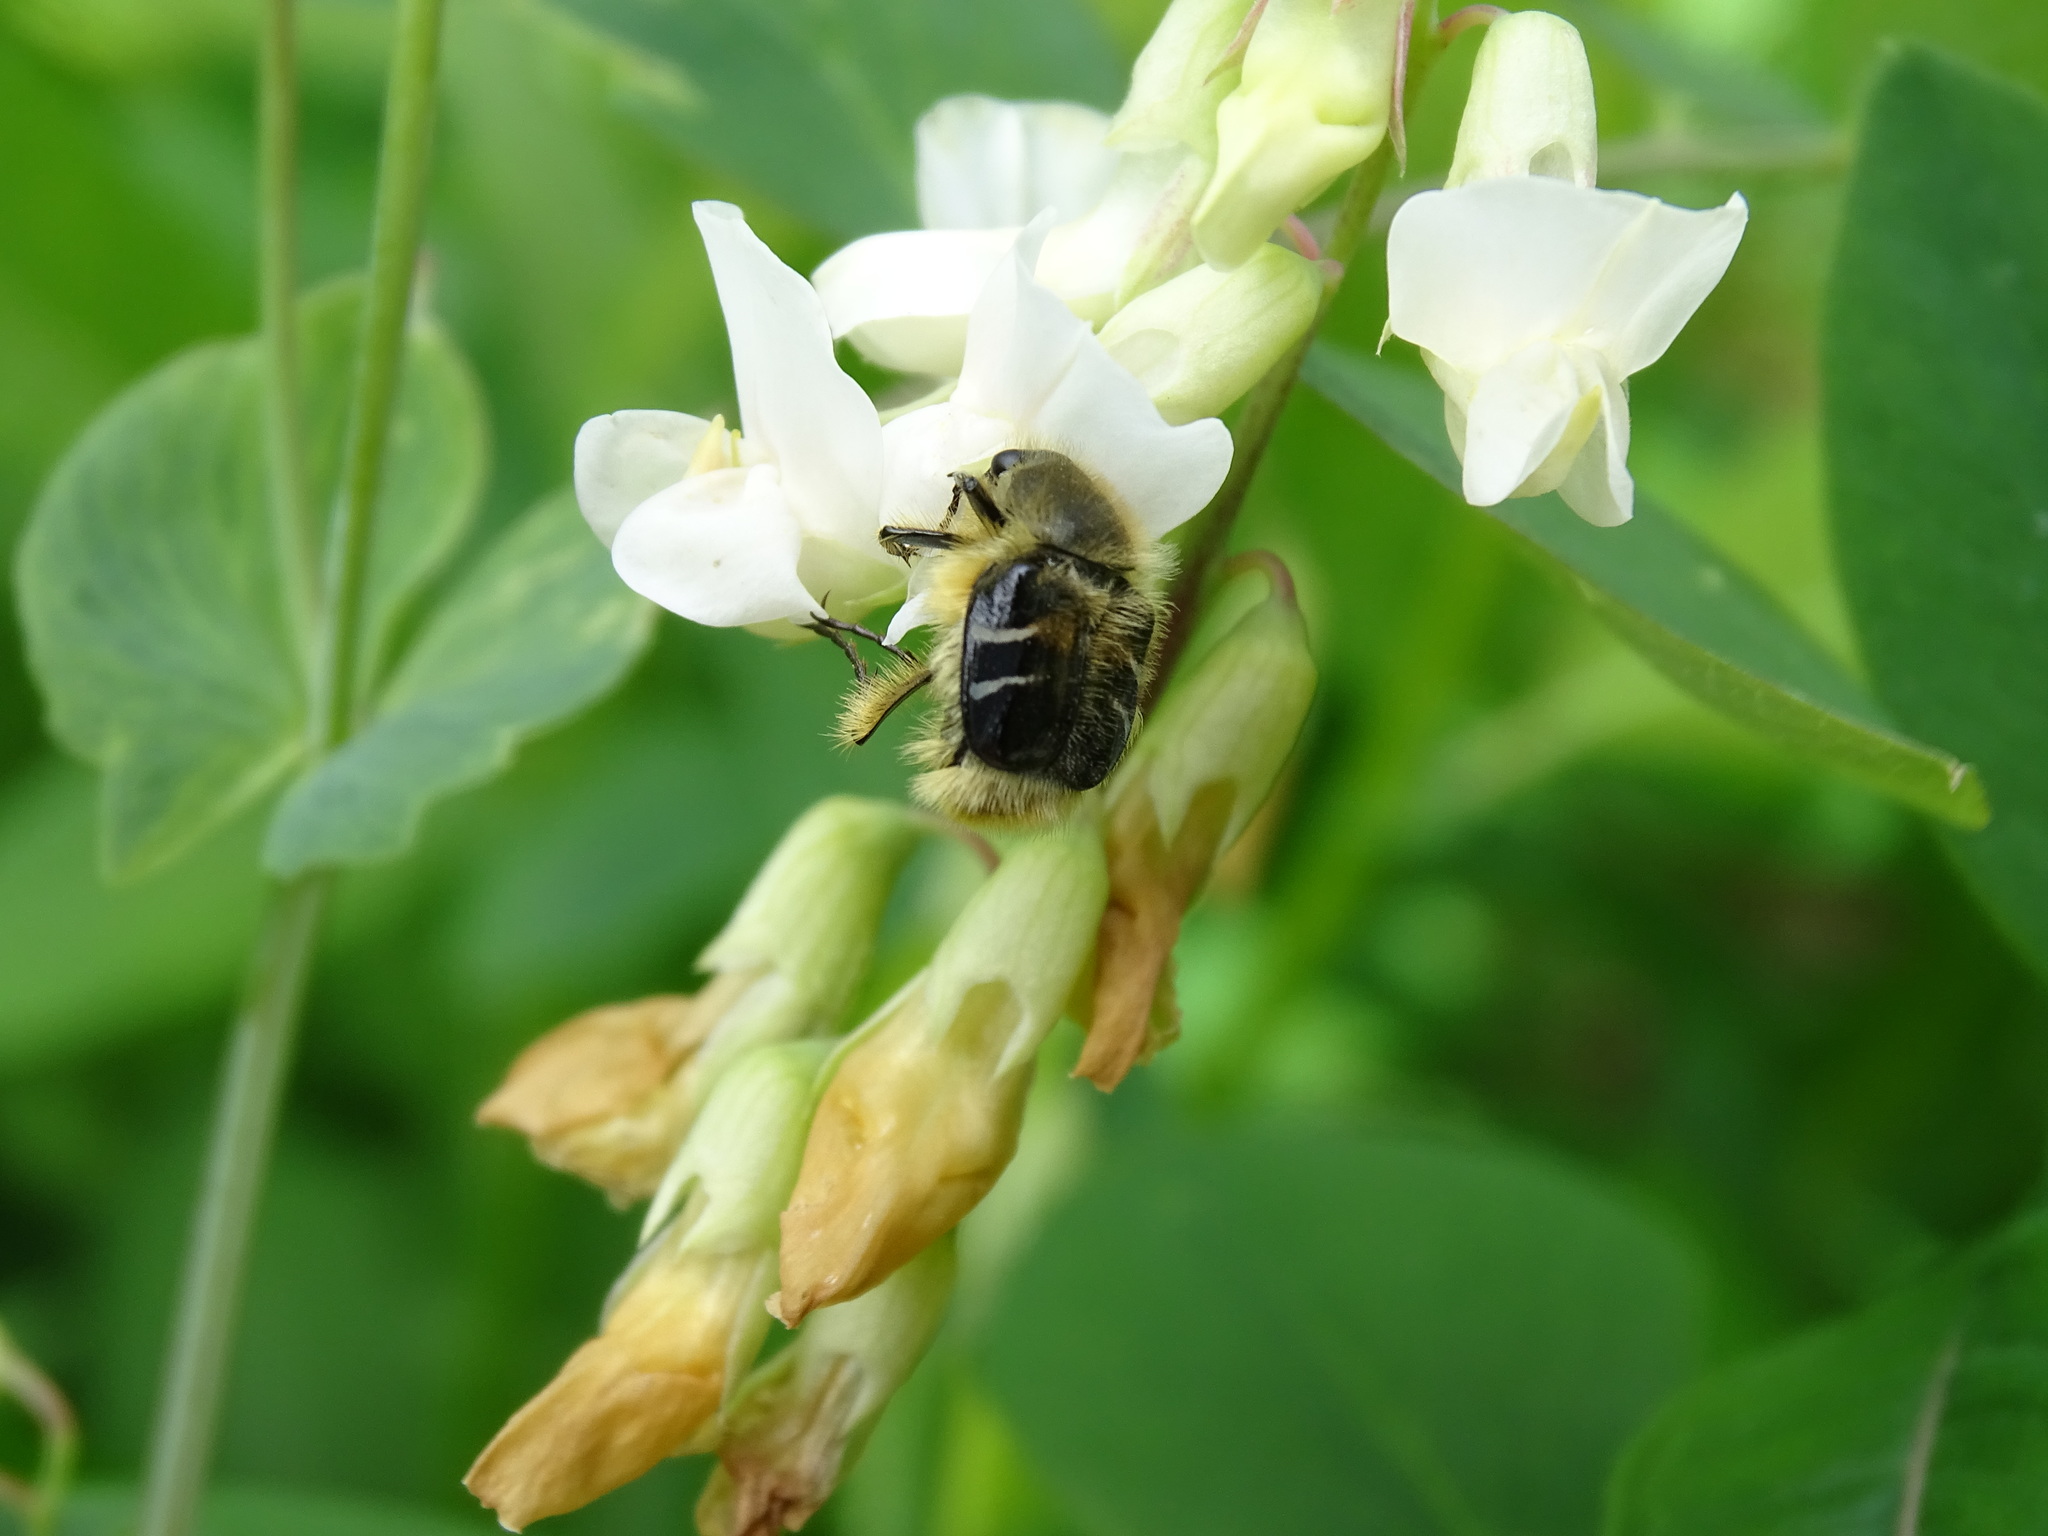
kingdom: Animalia
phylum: Arthropoda
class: Insecta
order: Coleoptera
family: Scarabaeidae
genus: Trichiotinus
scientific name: Trichiotinus assimilis
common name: Bee-mimic beetle
